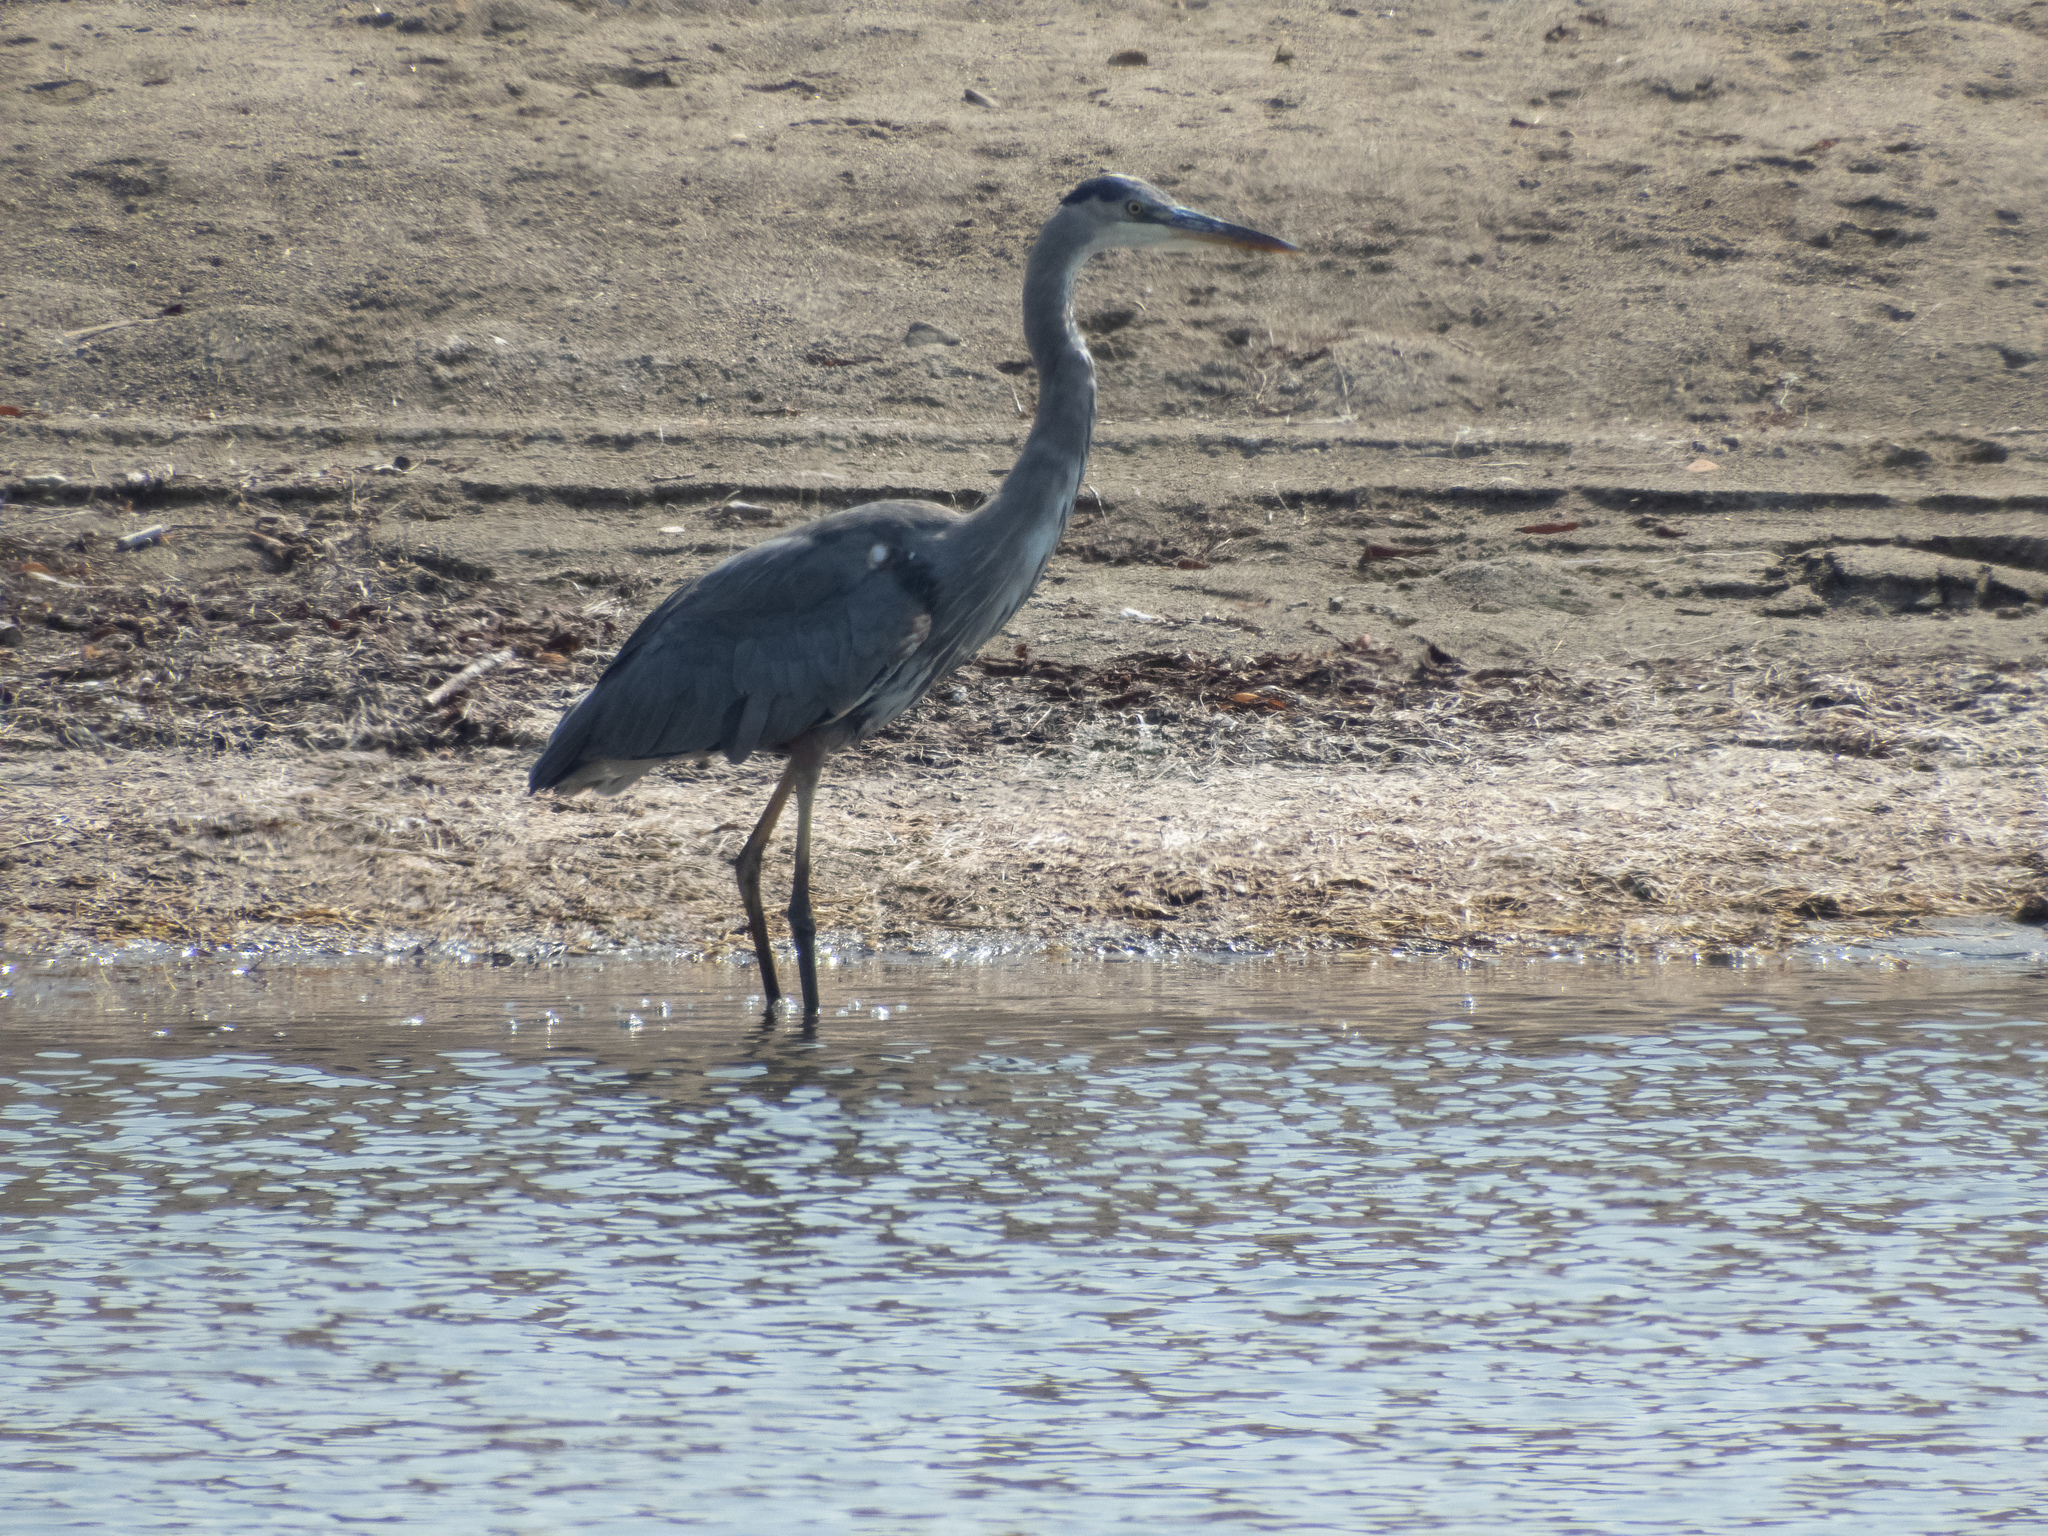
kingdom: Animalia
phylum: Chordata
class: Aves
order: Pelecaniformes
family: Ardeidae
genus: Ardea
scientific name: Ardea herodias
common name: Great blue heron
